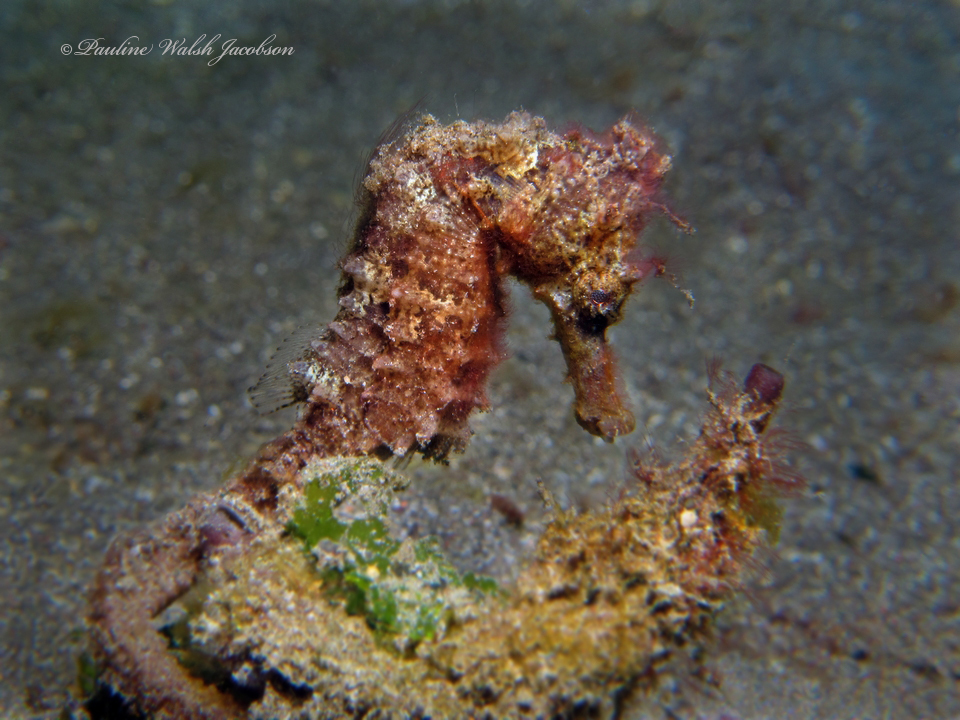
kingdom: Animalia
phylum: Chordata
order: Syngnathiformes
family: Syngnathidae
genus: Hippocampus
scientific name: Hippocampus kuda
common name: Spotted seahorse
